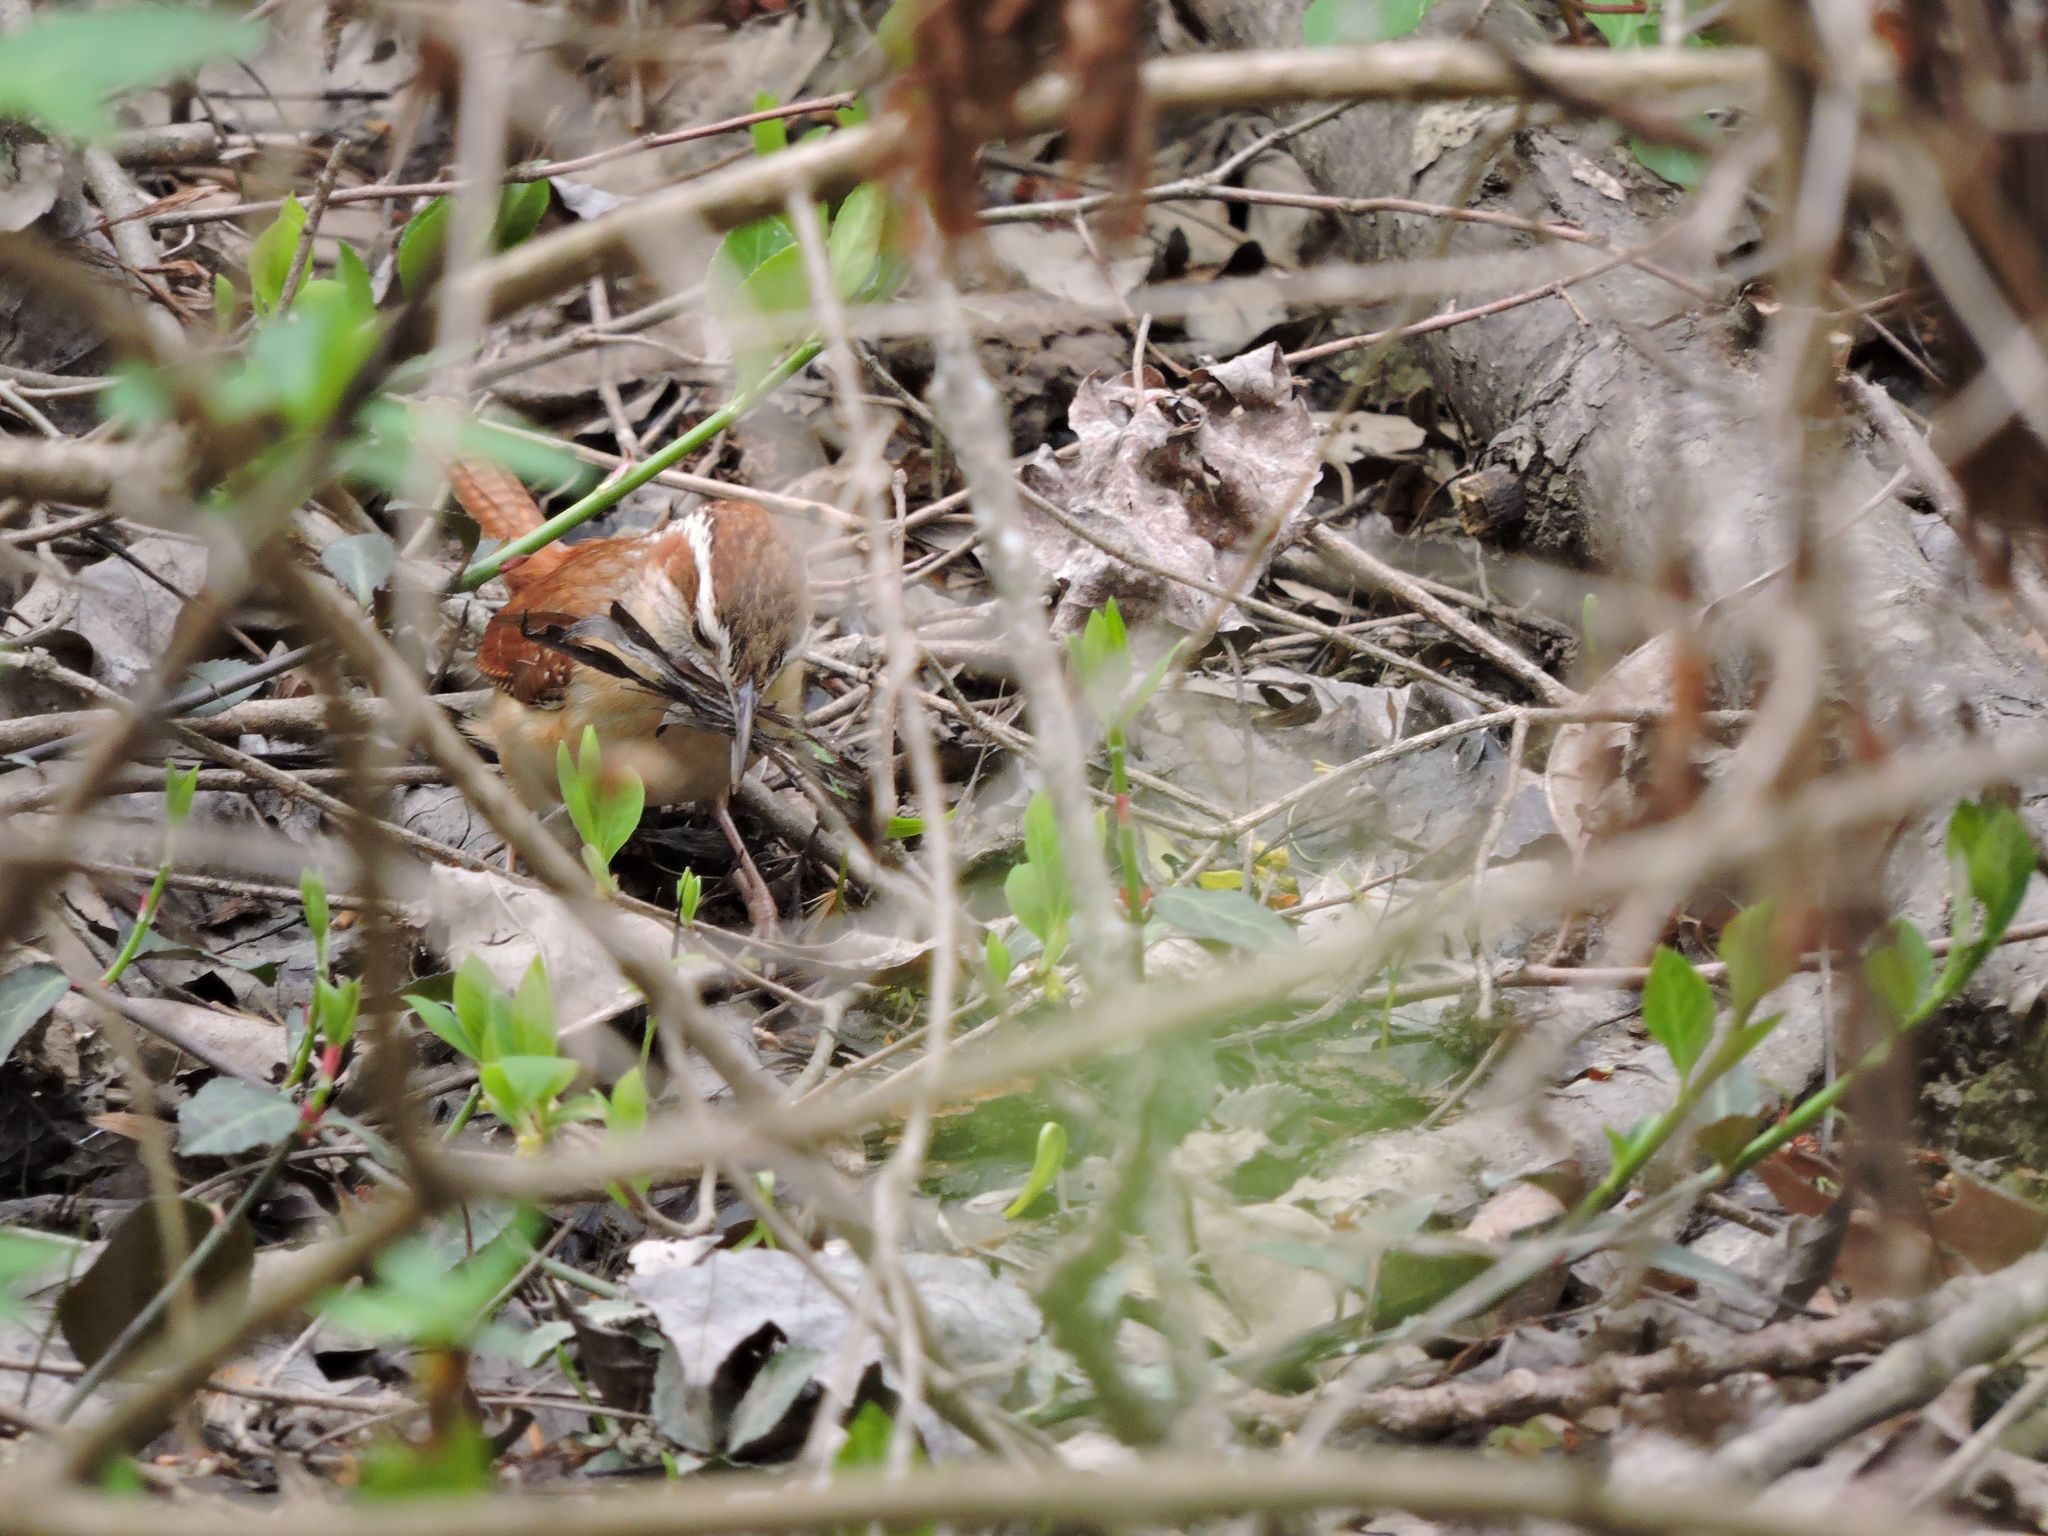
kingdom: Animalia
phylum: Chordata
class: Aves
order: Passeriformes
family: Troglodytidae
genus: Thryothorus
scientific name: Thryothorus ludovicianus
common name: Carolina wren
